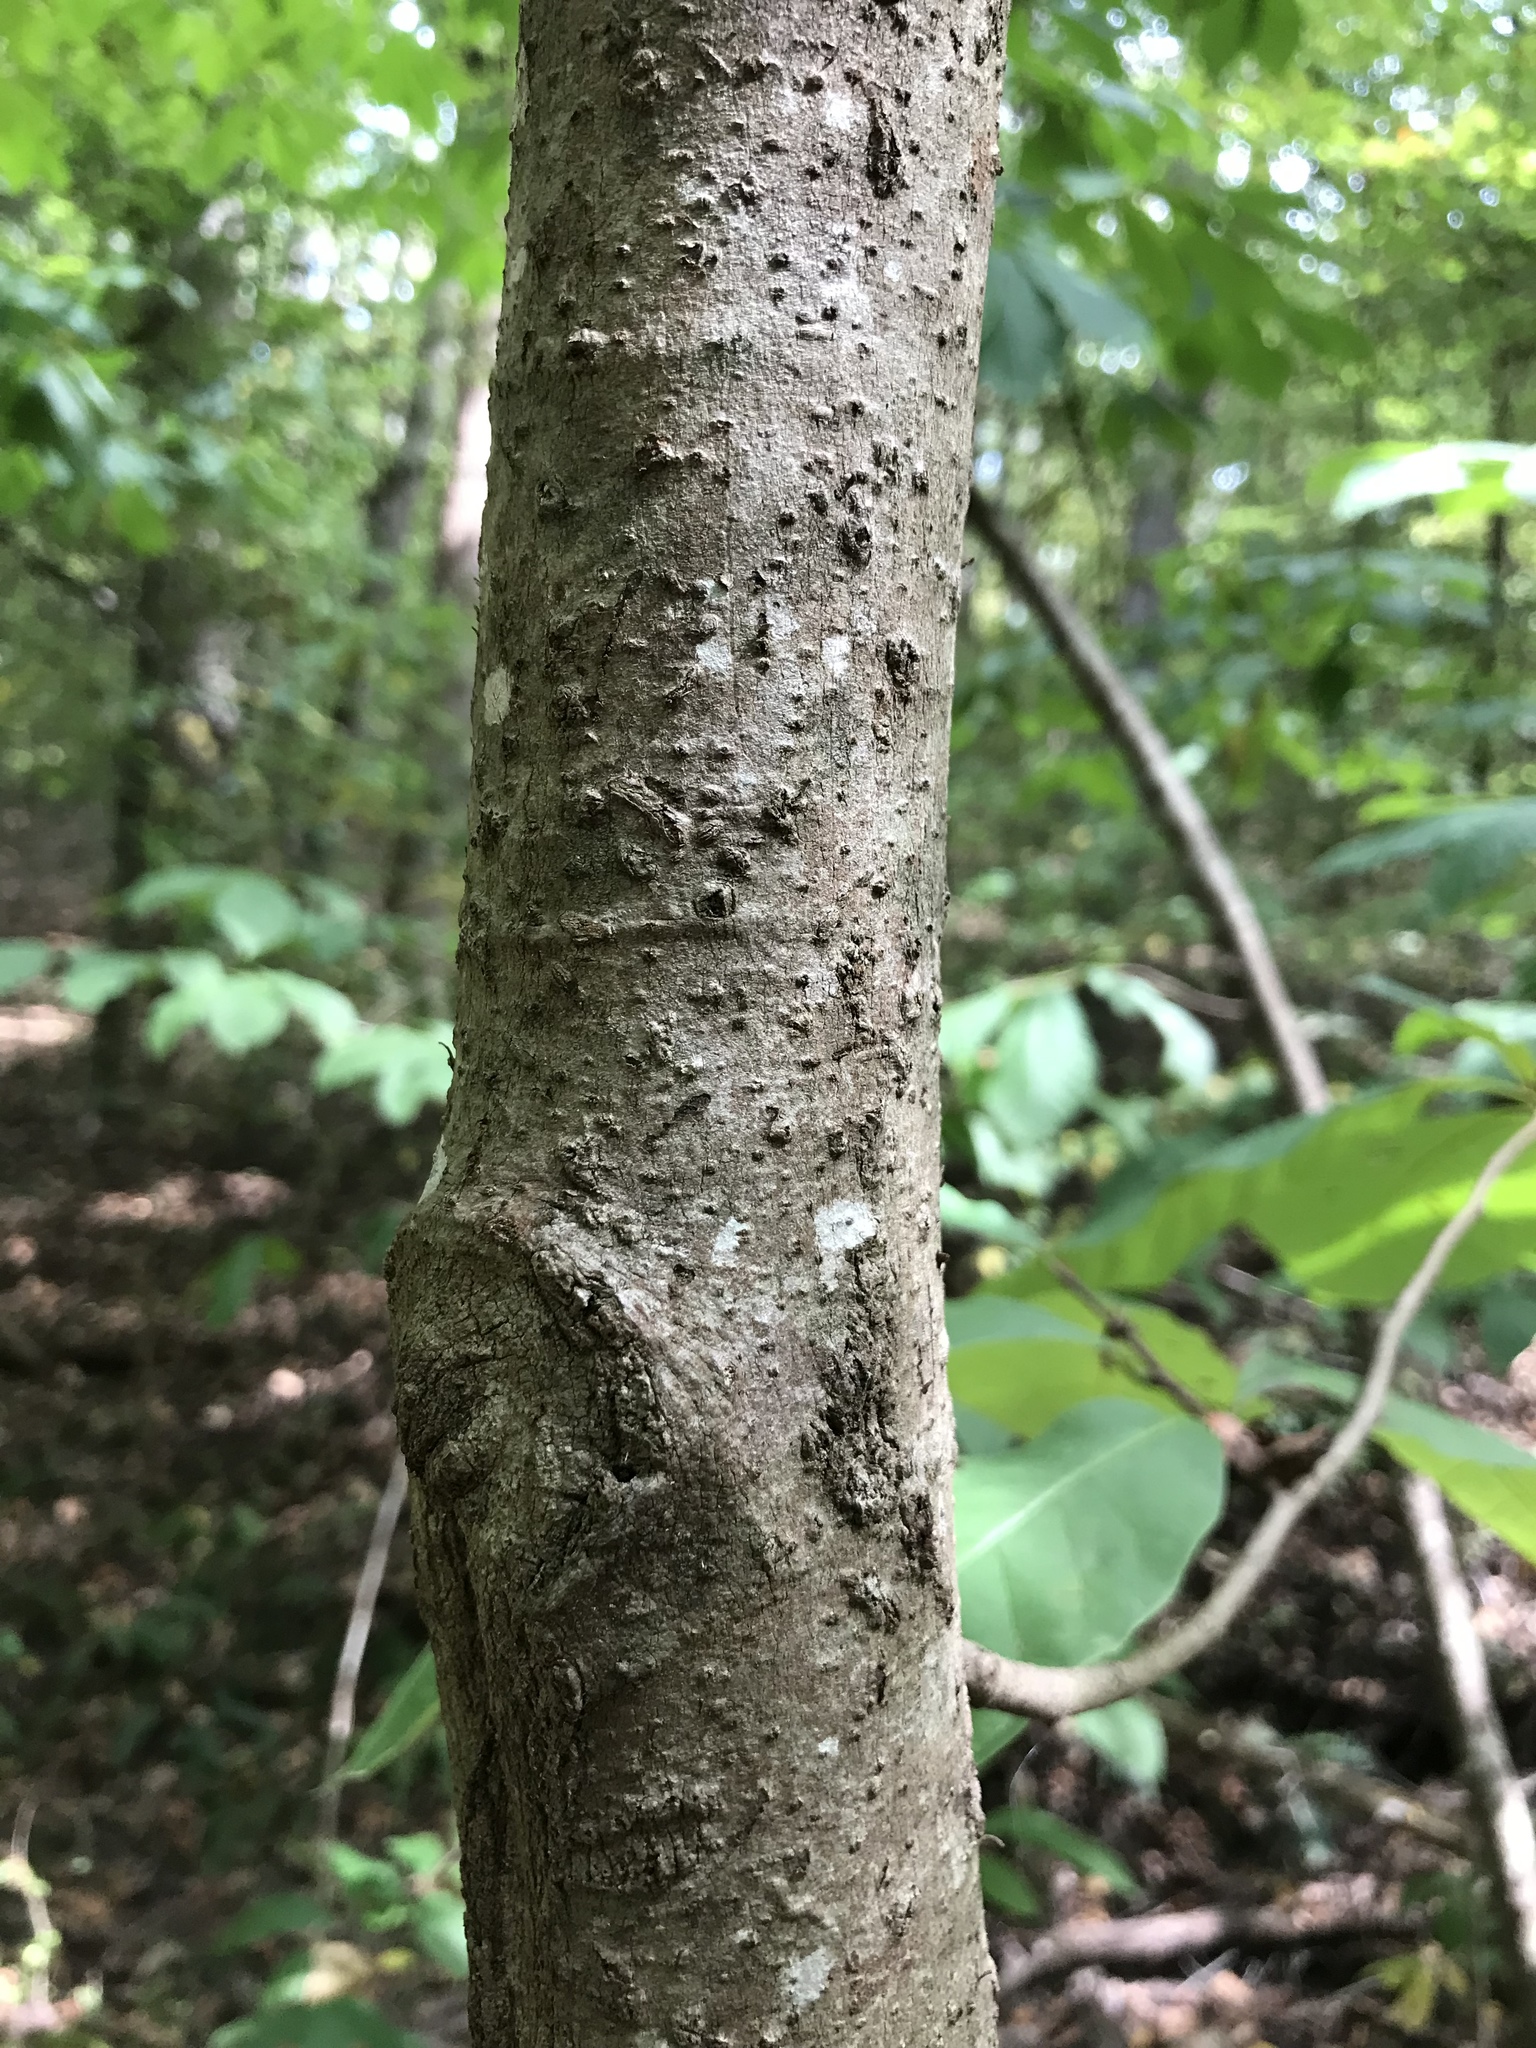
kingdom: Plantae
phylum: Tracheophyta
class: Magnoliopsida
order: Magnoliales
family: Annonaceae
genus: Asimina
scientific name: Asimina triloba
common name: Dog-banana
